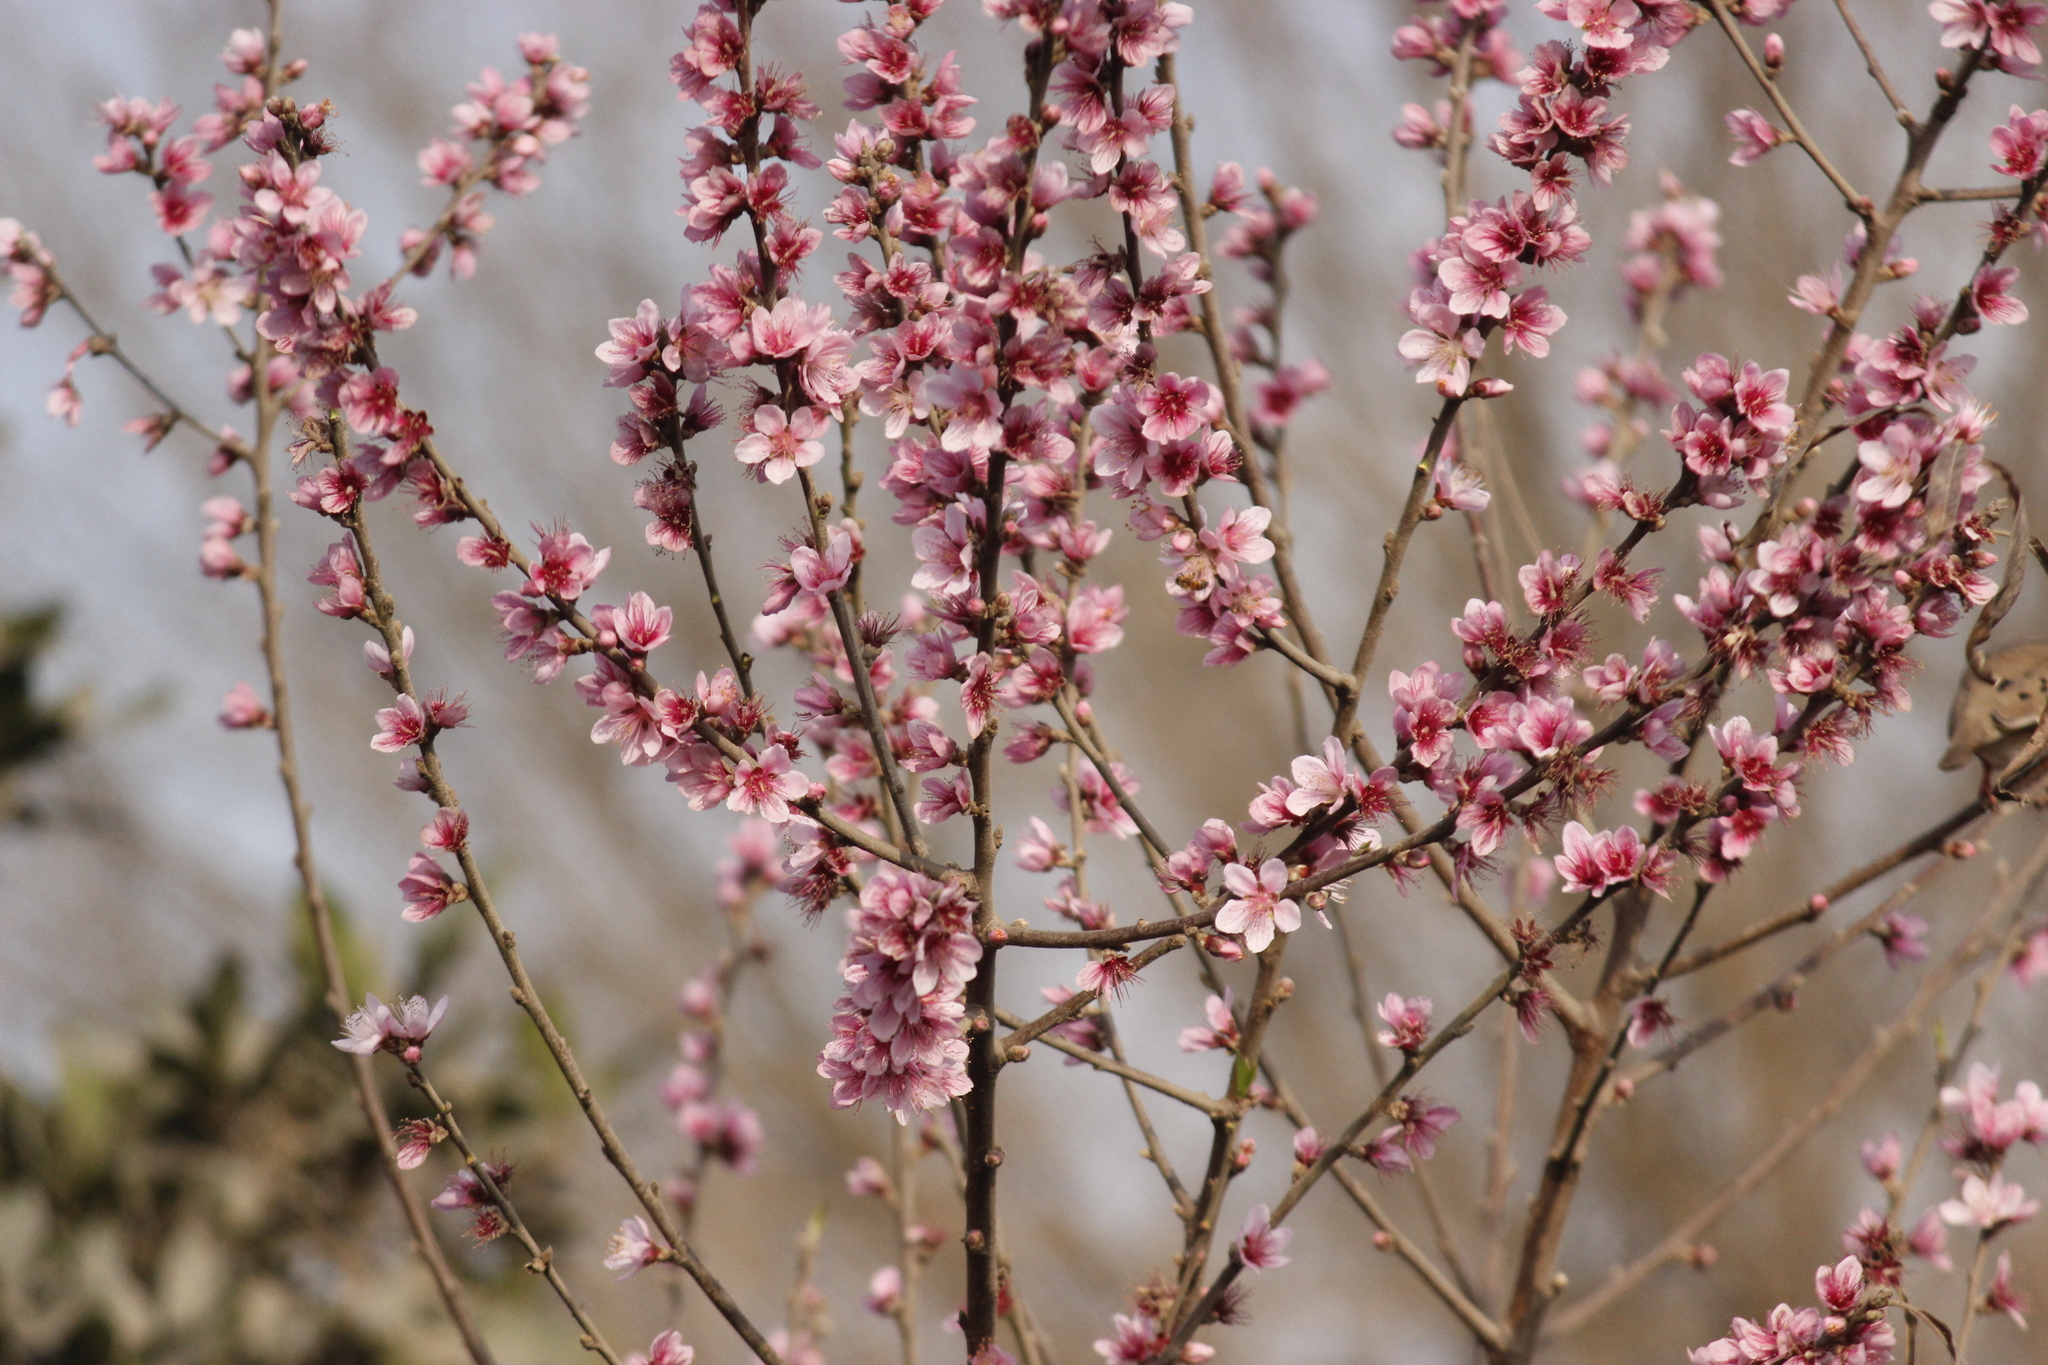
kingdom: Plantae
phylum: Tracheophyta
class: Magnoliopsida
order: Rosales
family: Rosaceae
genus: Prunus
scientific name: Prunus persica
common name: Peach
